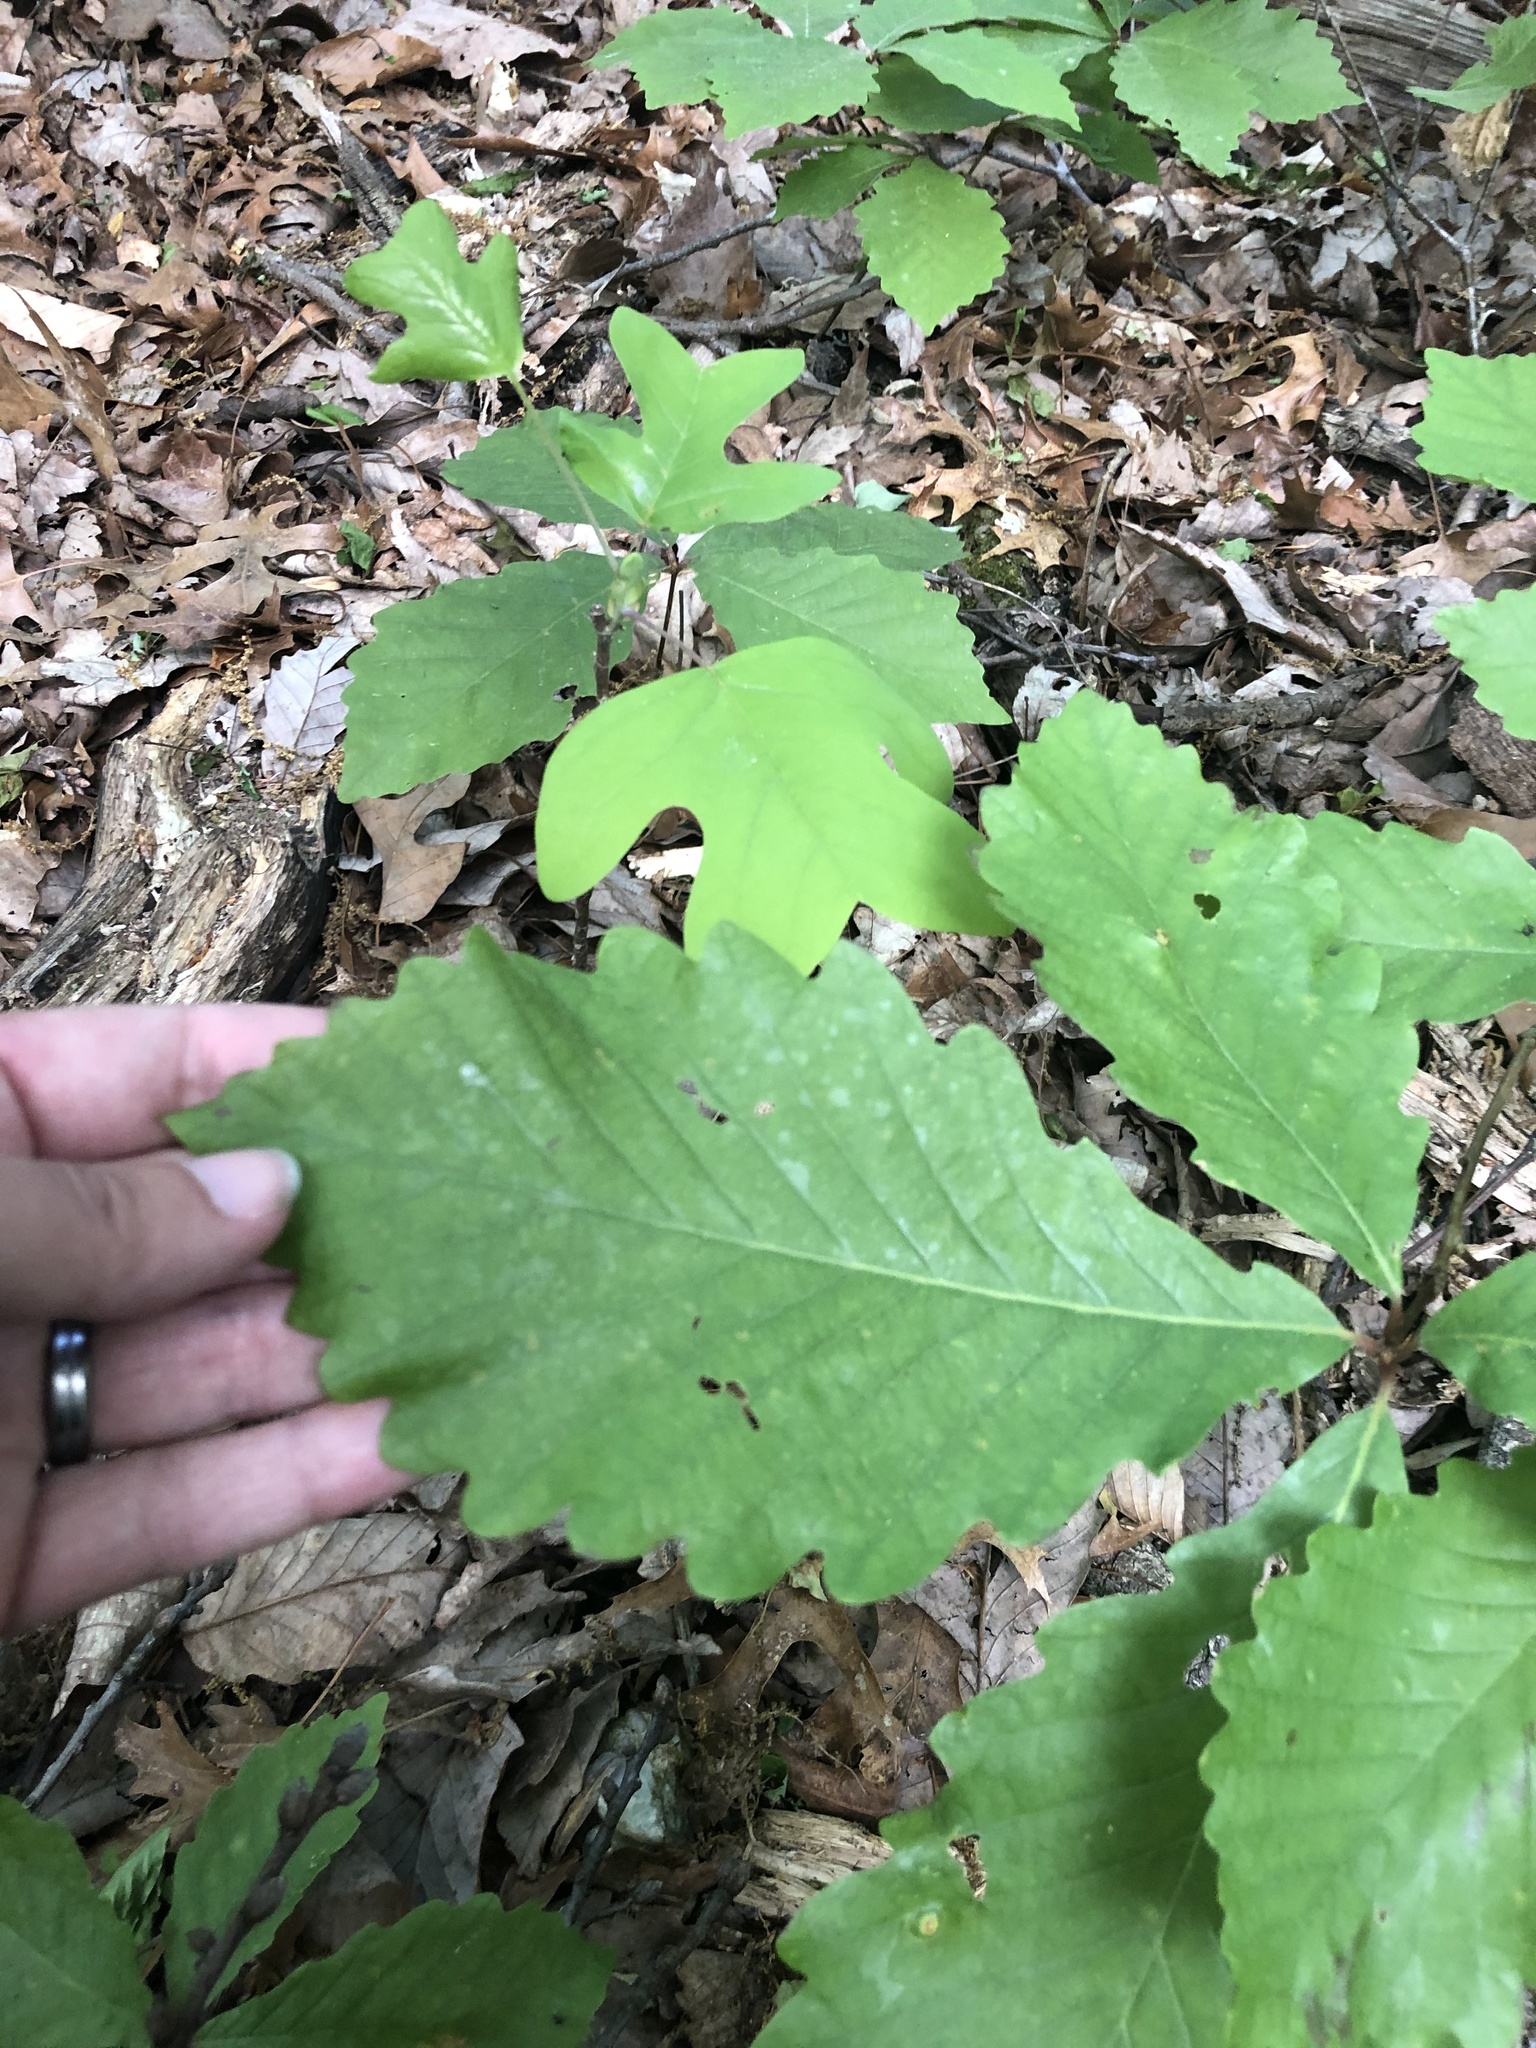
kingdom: Plantae
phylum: Tracheophyta
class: Magnoliopsida
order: Fagales
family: Fagaceae
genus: Quercus
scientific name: Quercus montana
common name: Chestnut oak
